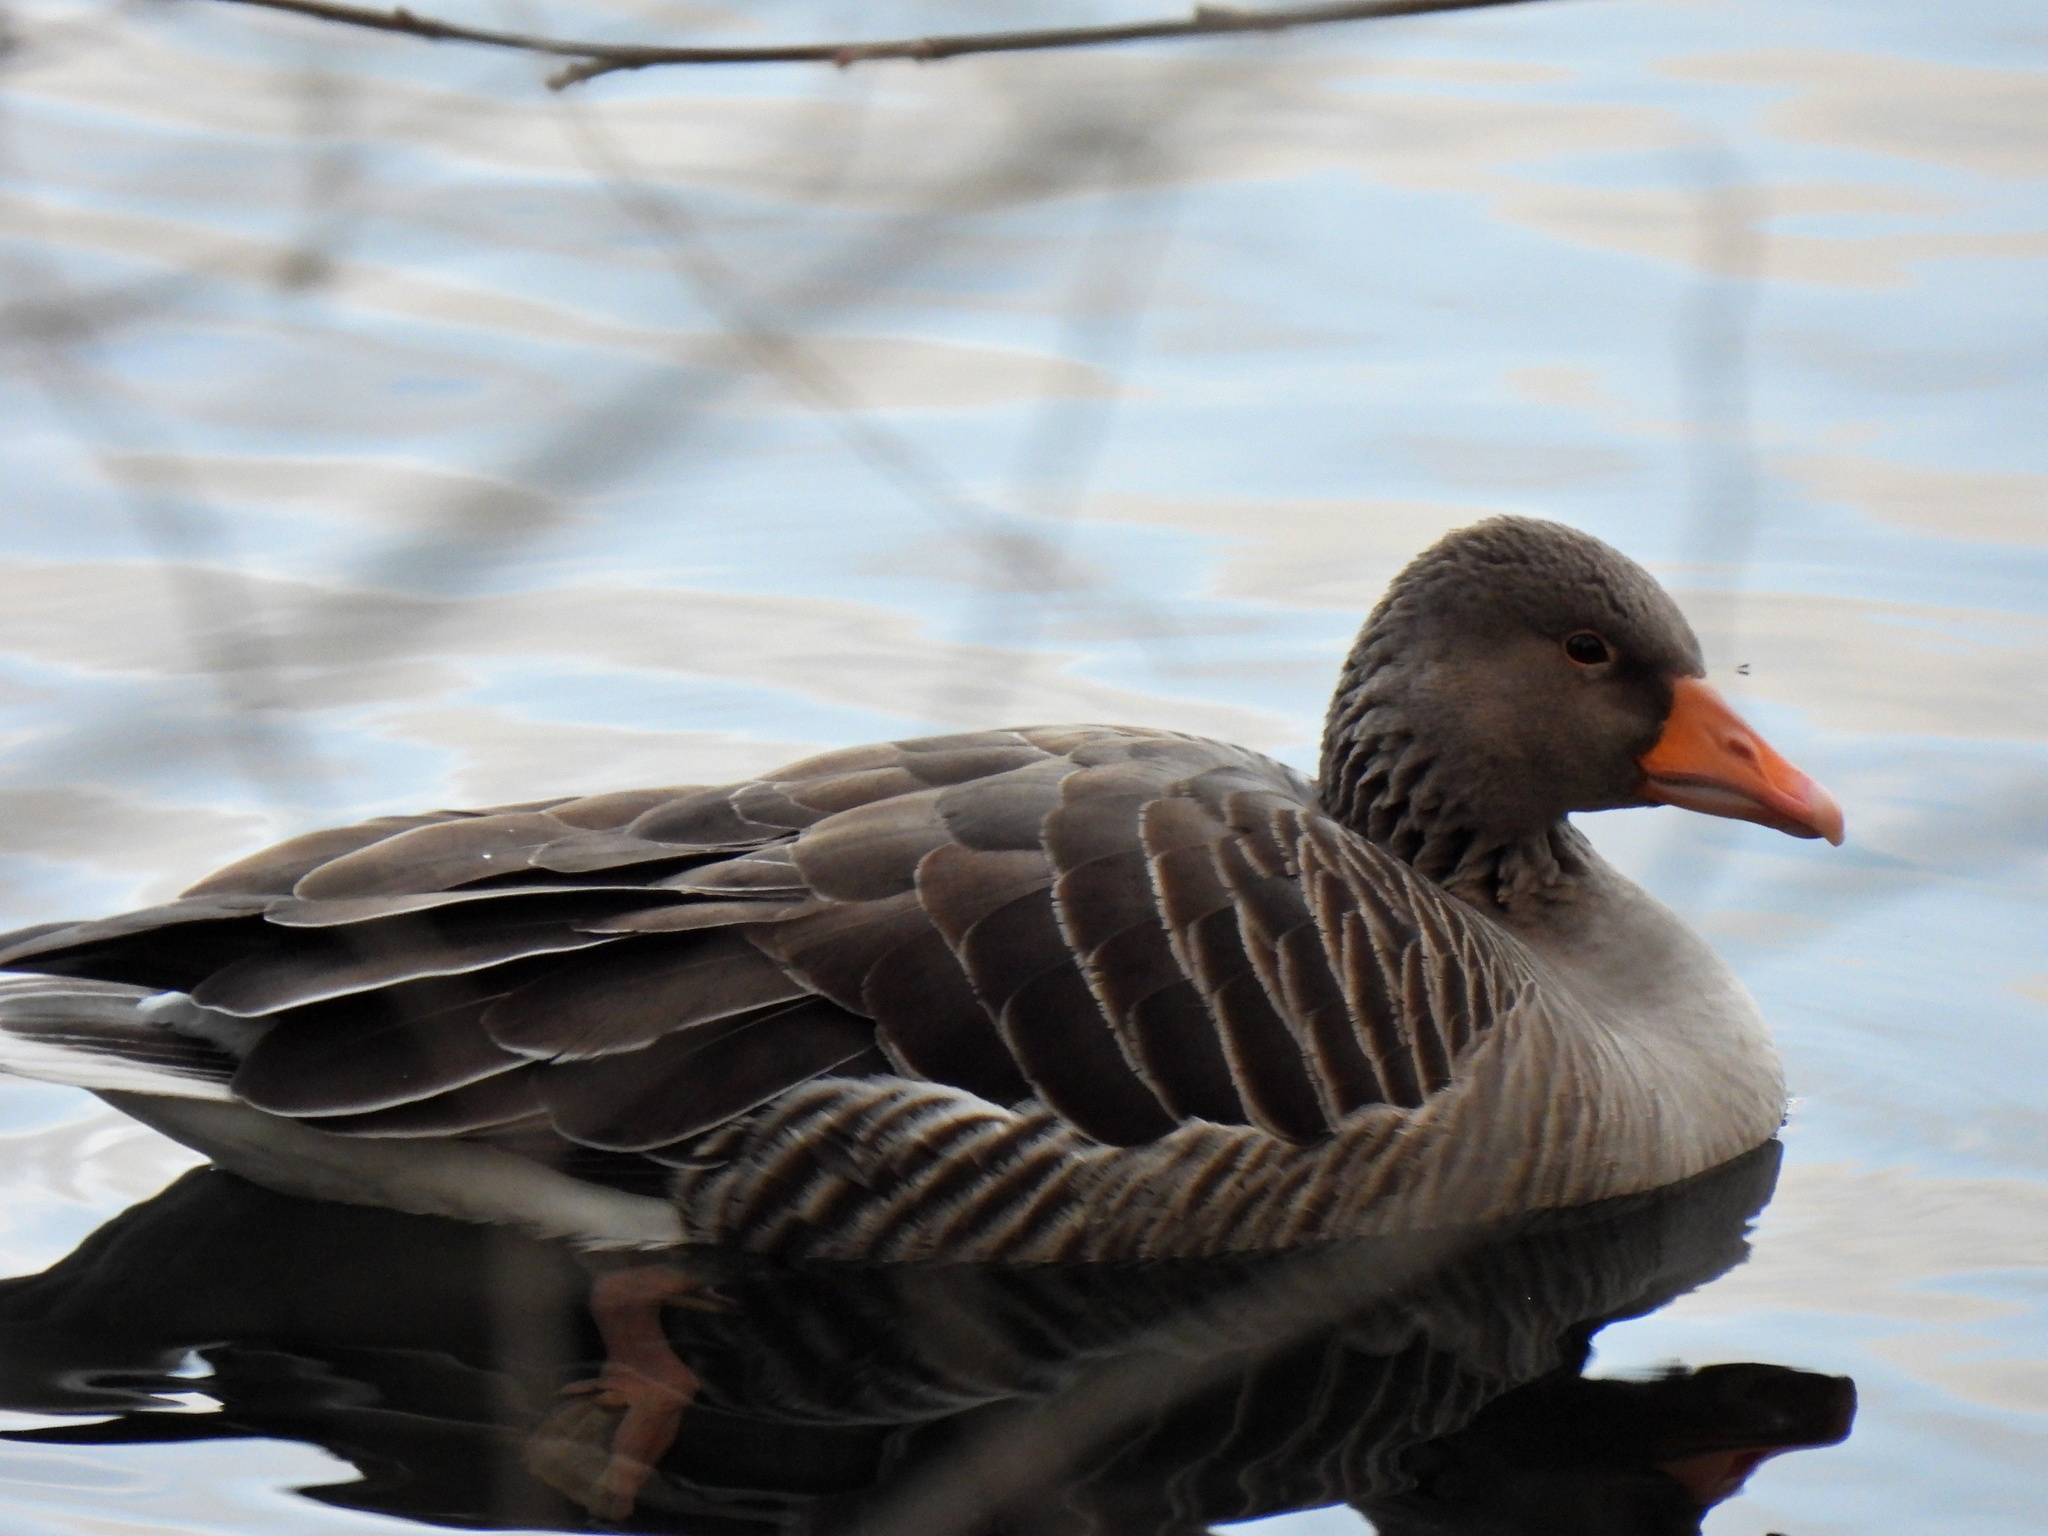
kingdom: Animalia
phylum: Chordata
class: Aves
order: Anseriformes
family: Anatidae
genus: Anser
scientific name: Anser anser
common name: Greylag goose
